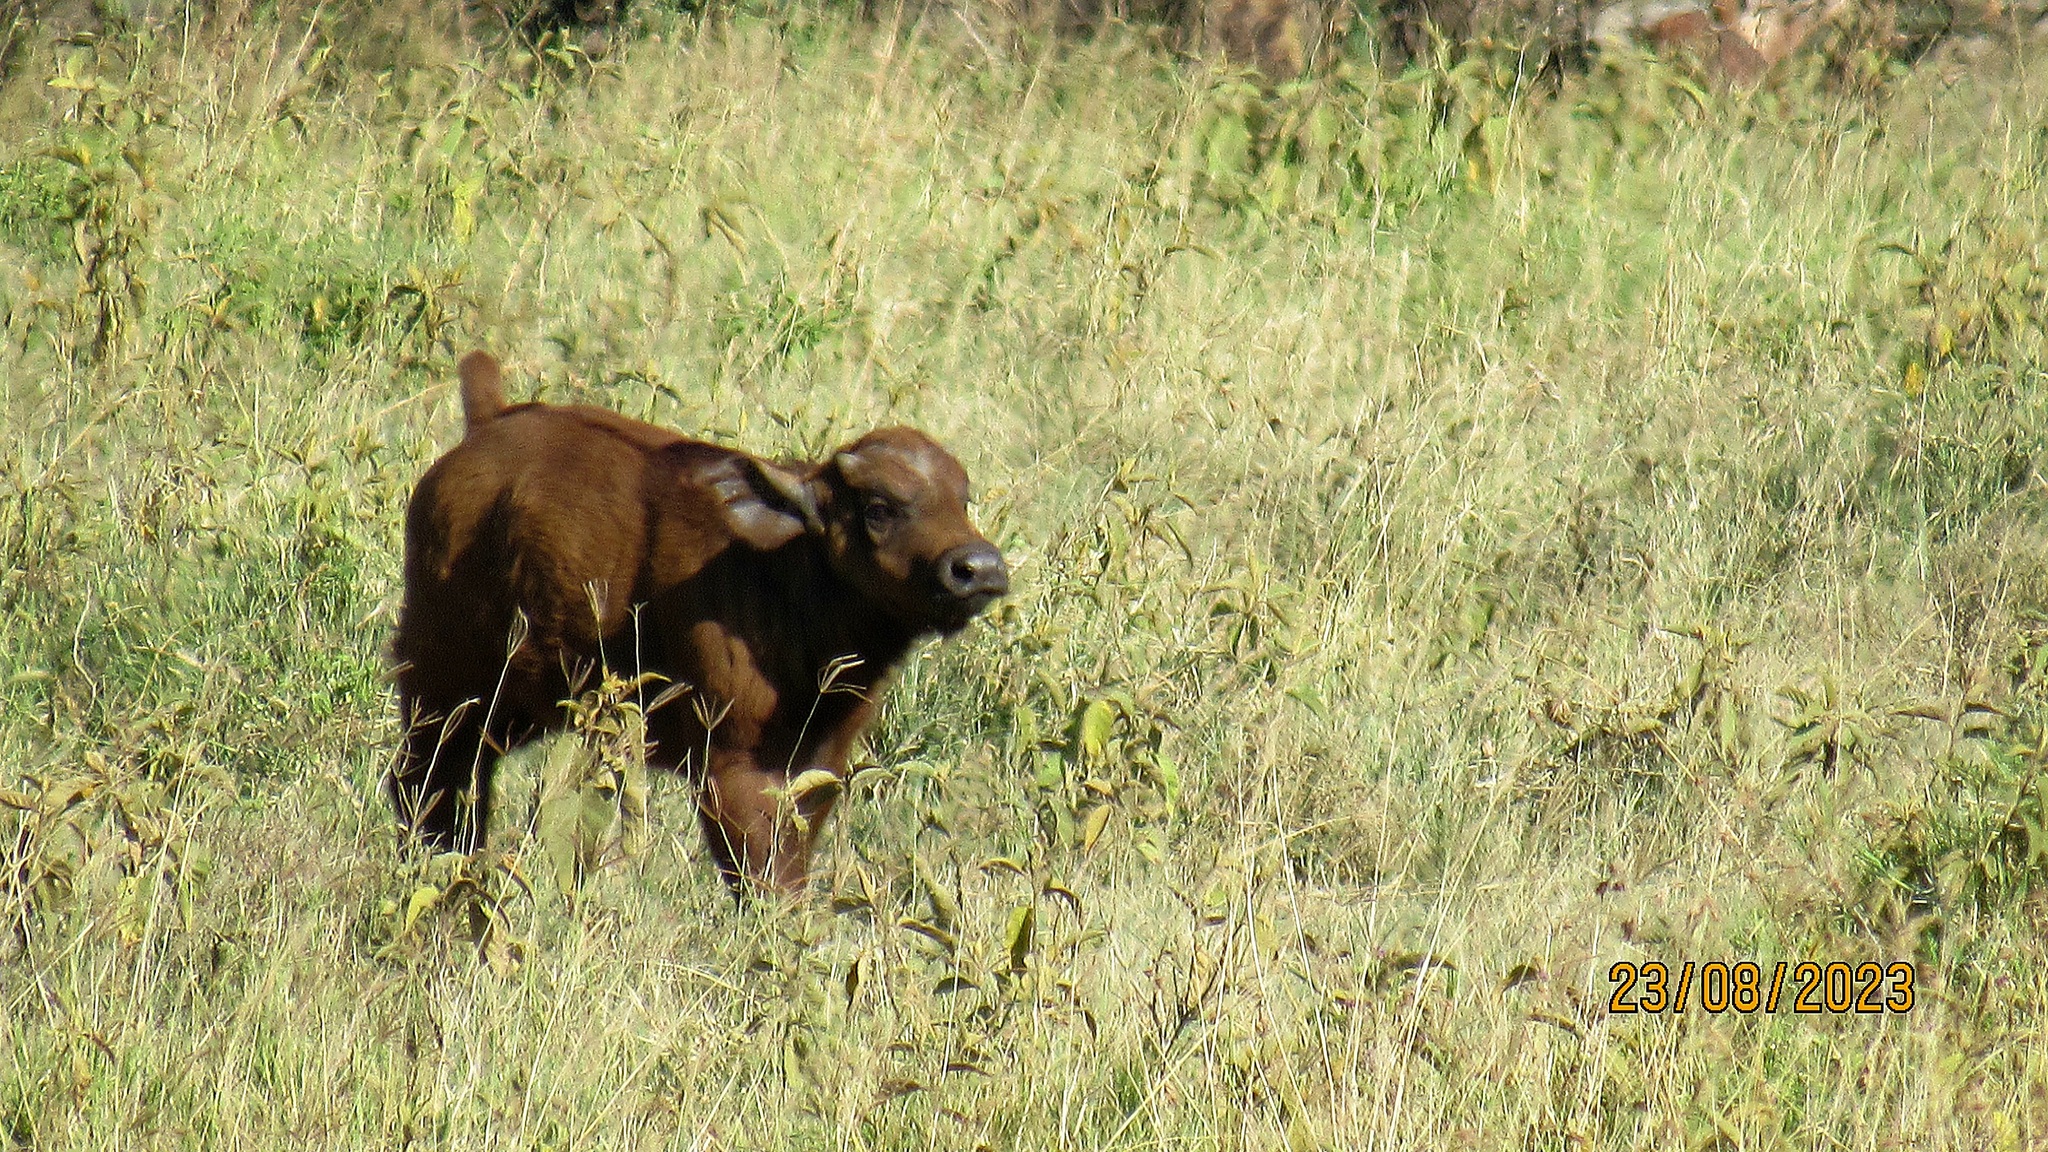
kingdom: Animalia
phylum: Chordata
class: Mammalia
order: Artiodactyla
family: Bovidae
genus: Syncerus
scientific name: Syncerus caffer
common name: African buffalo
